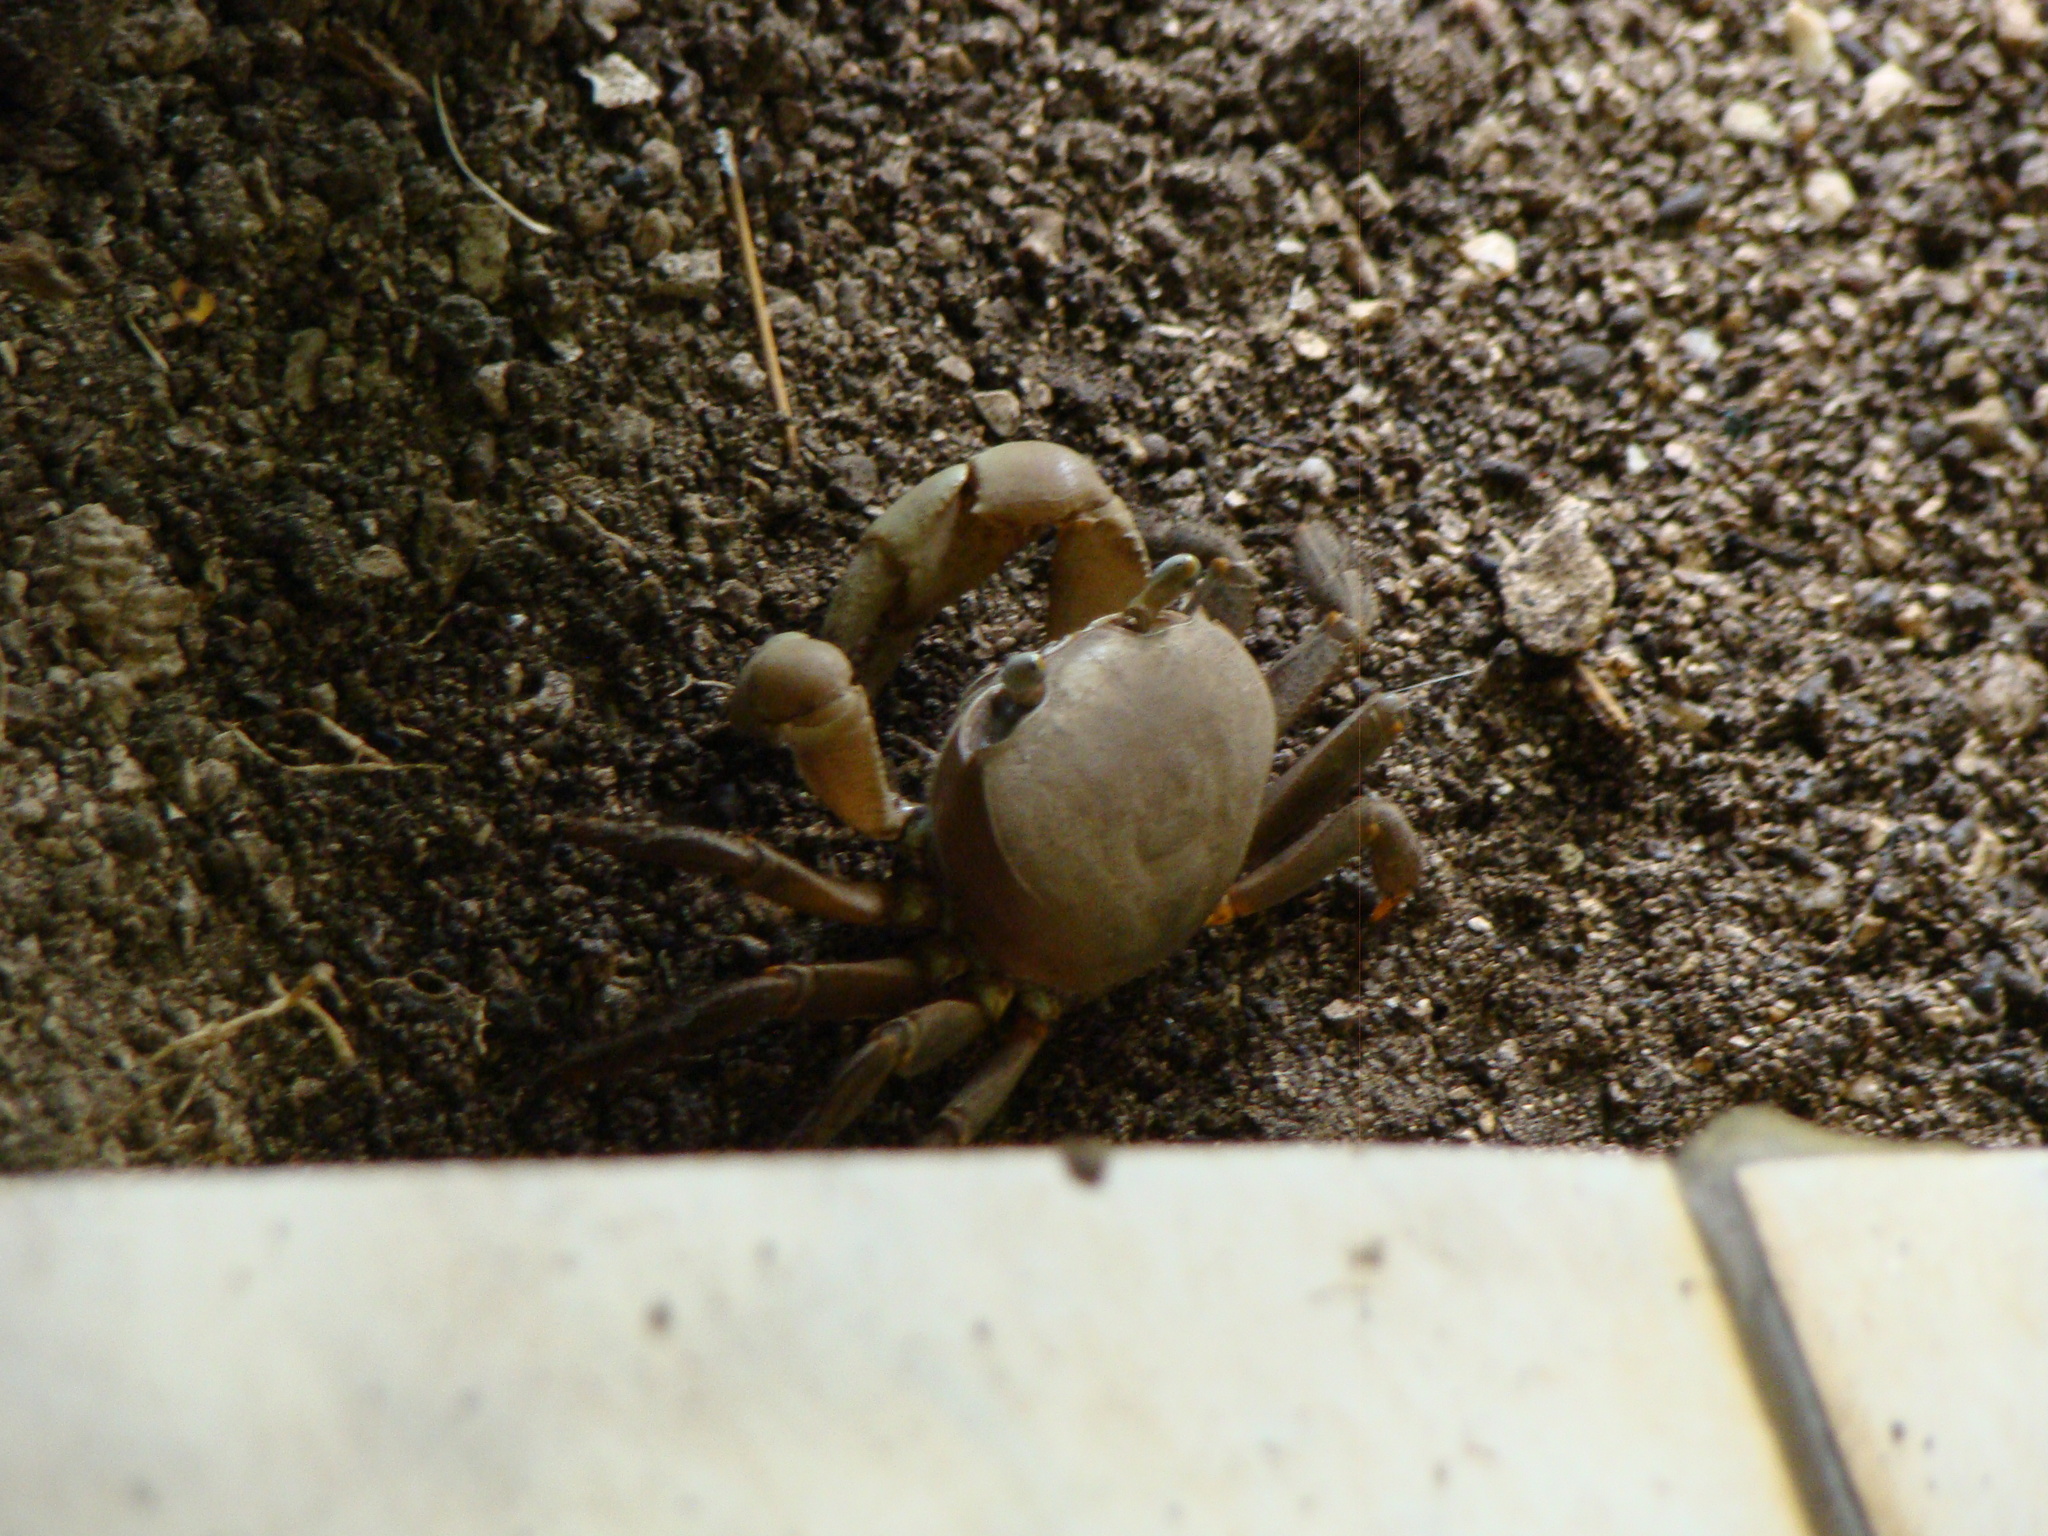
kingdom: Animalia
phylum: Arthropoda
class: Malacostraca
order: Decapoda
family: Gecarcinidae
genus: Cardisoma
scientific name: Cardisoma carnifex
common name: Brown land crab
